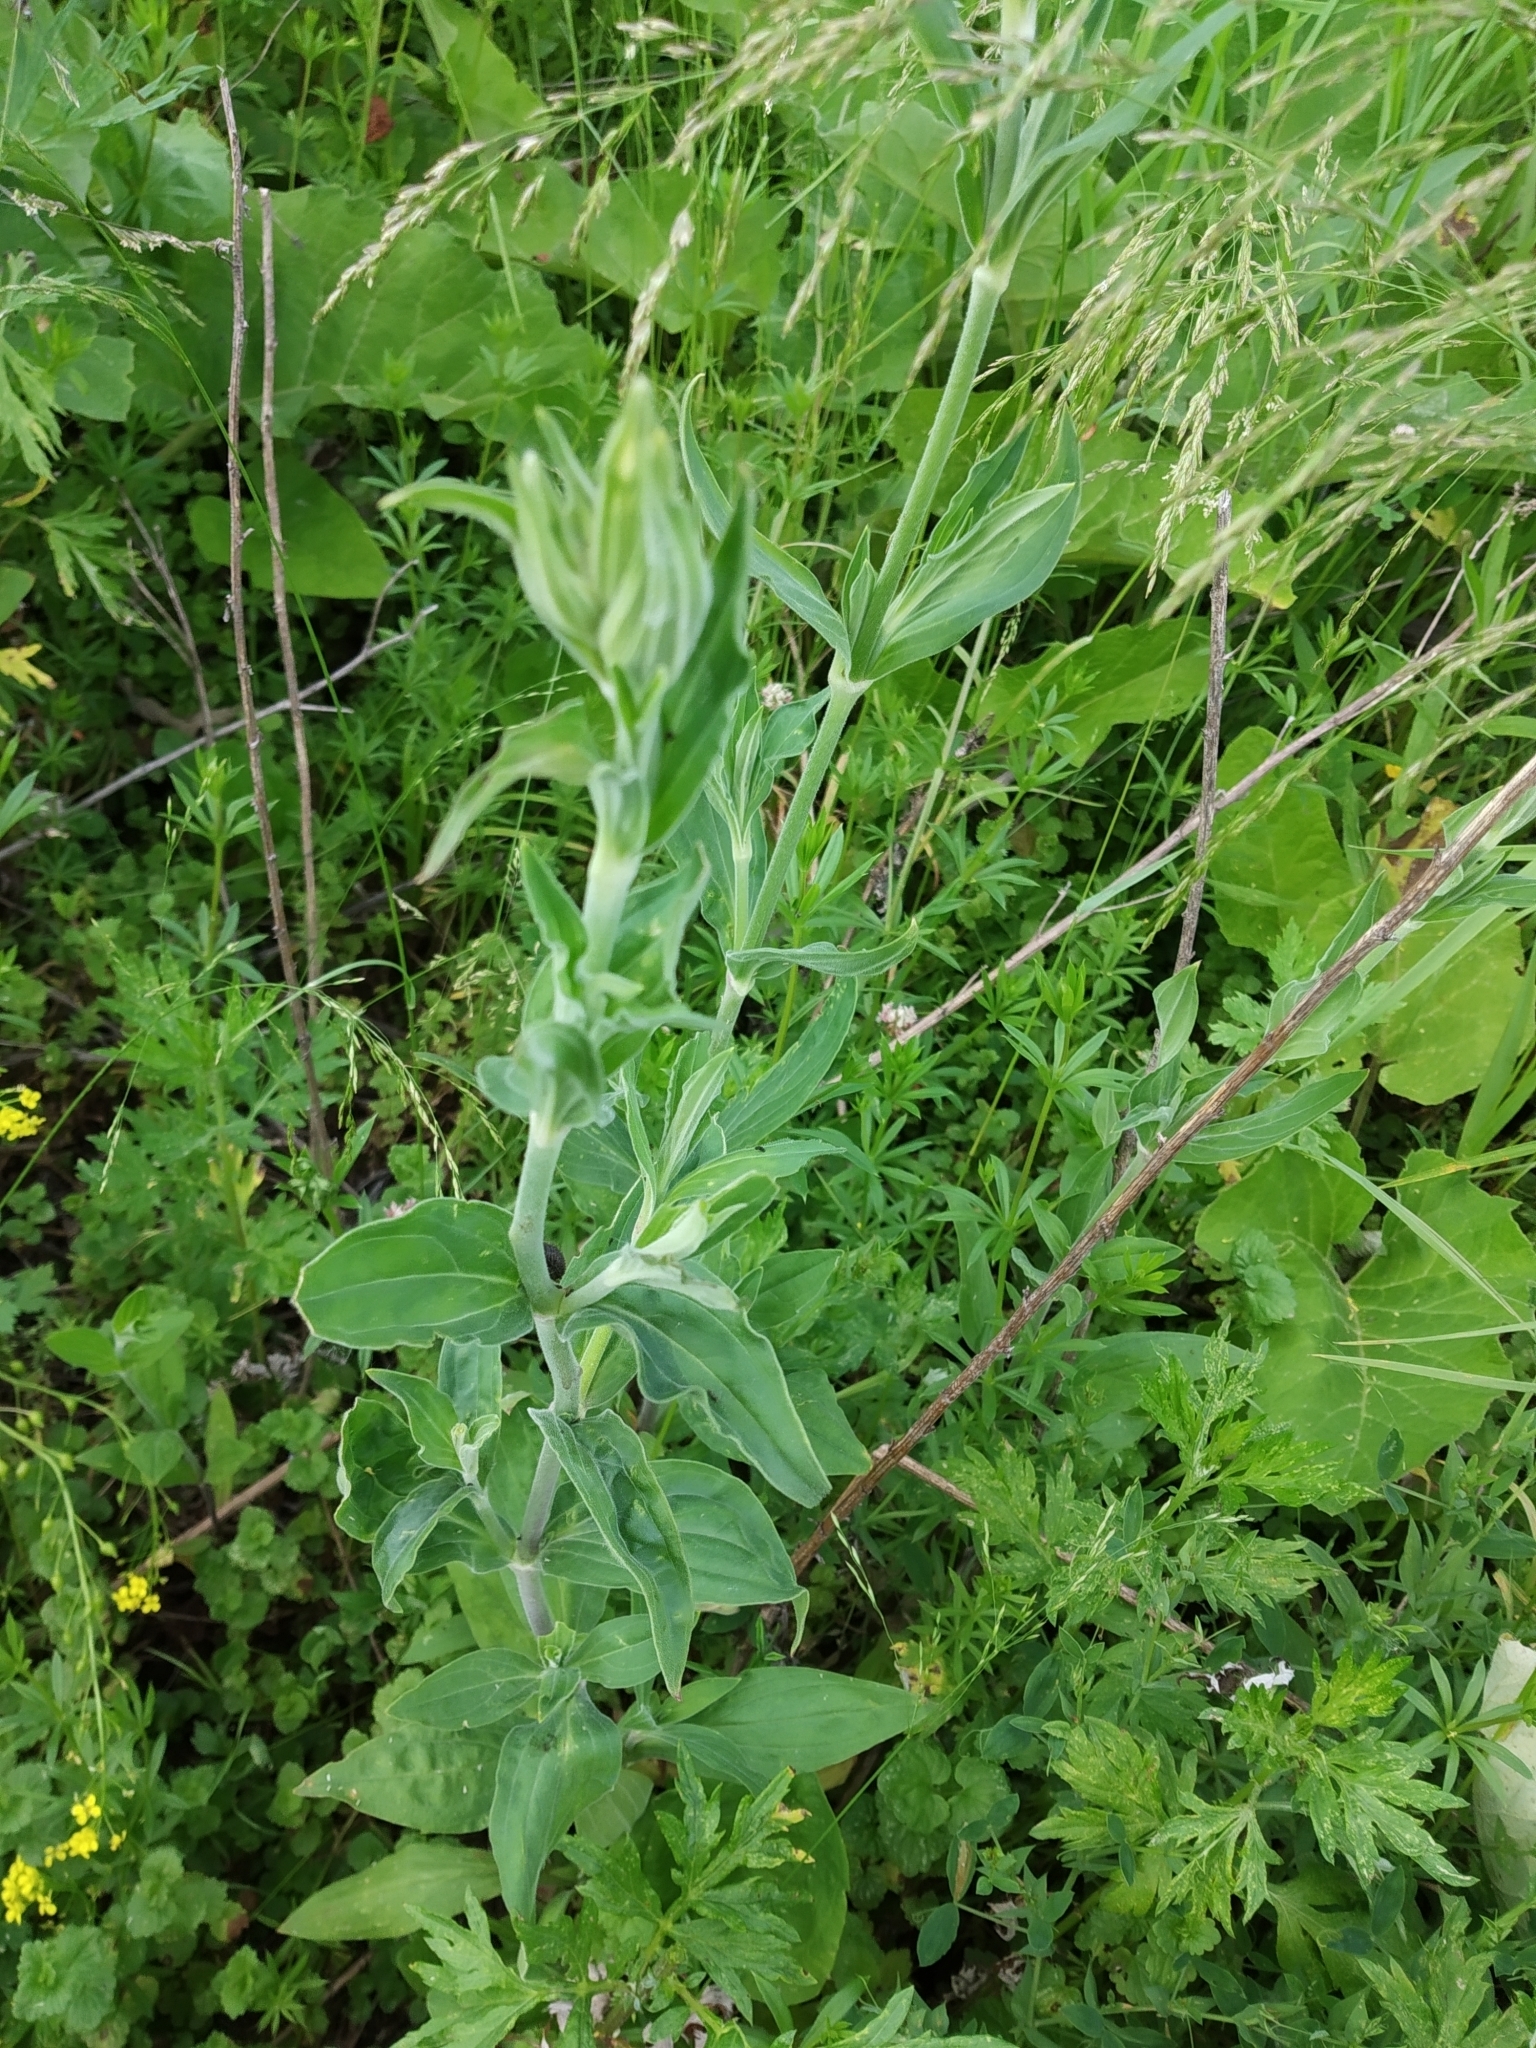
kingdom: Plantae
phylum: Tracheophyta
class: Magnoliopsida
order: Caryophyllales
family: Caryophyllaceae
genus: Silene
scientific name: Silene latifolia
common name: White campion
